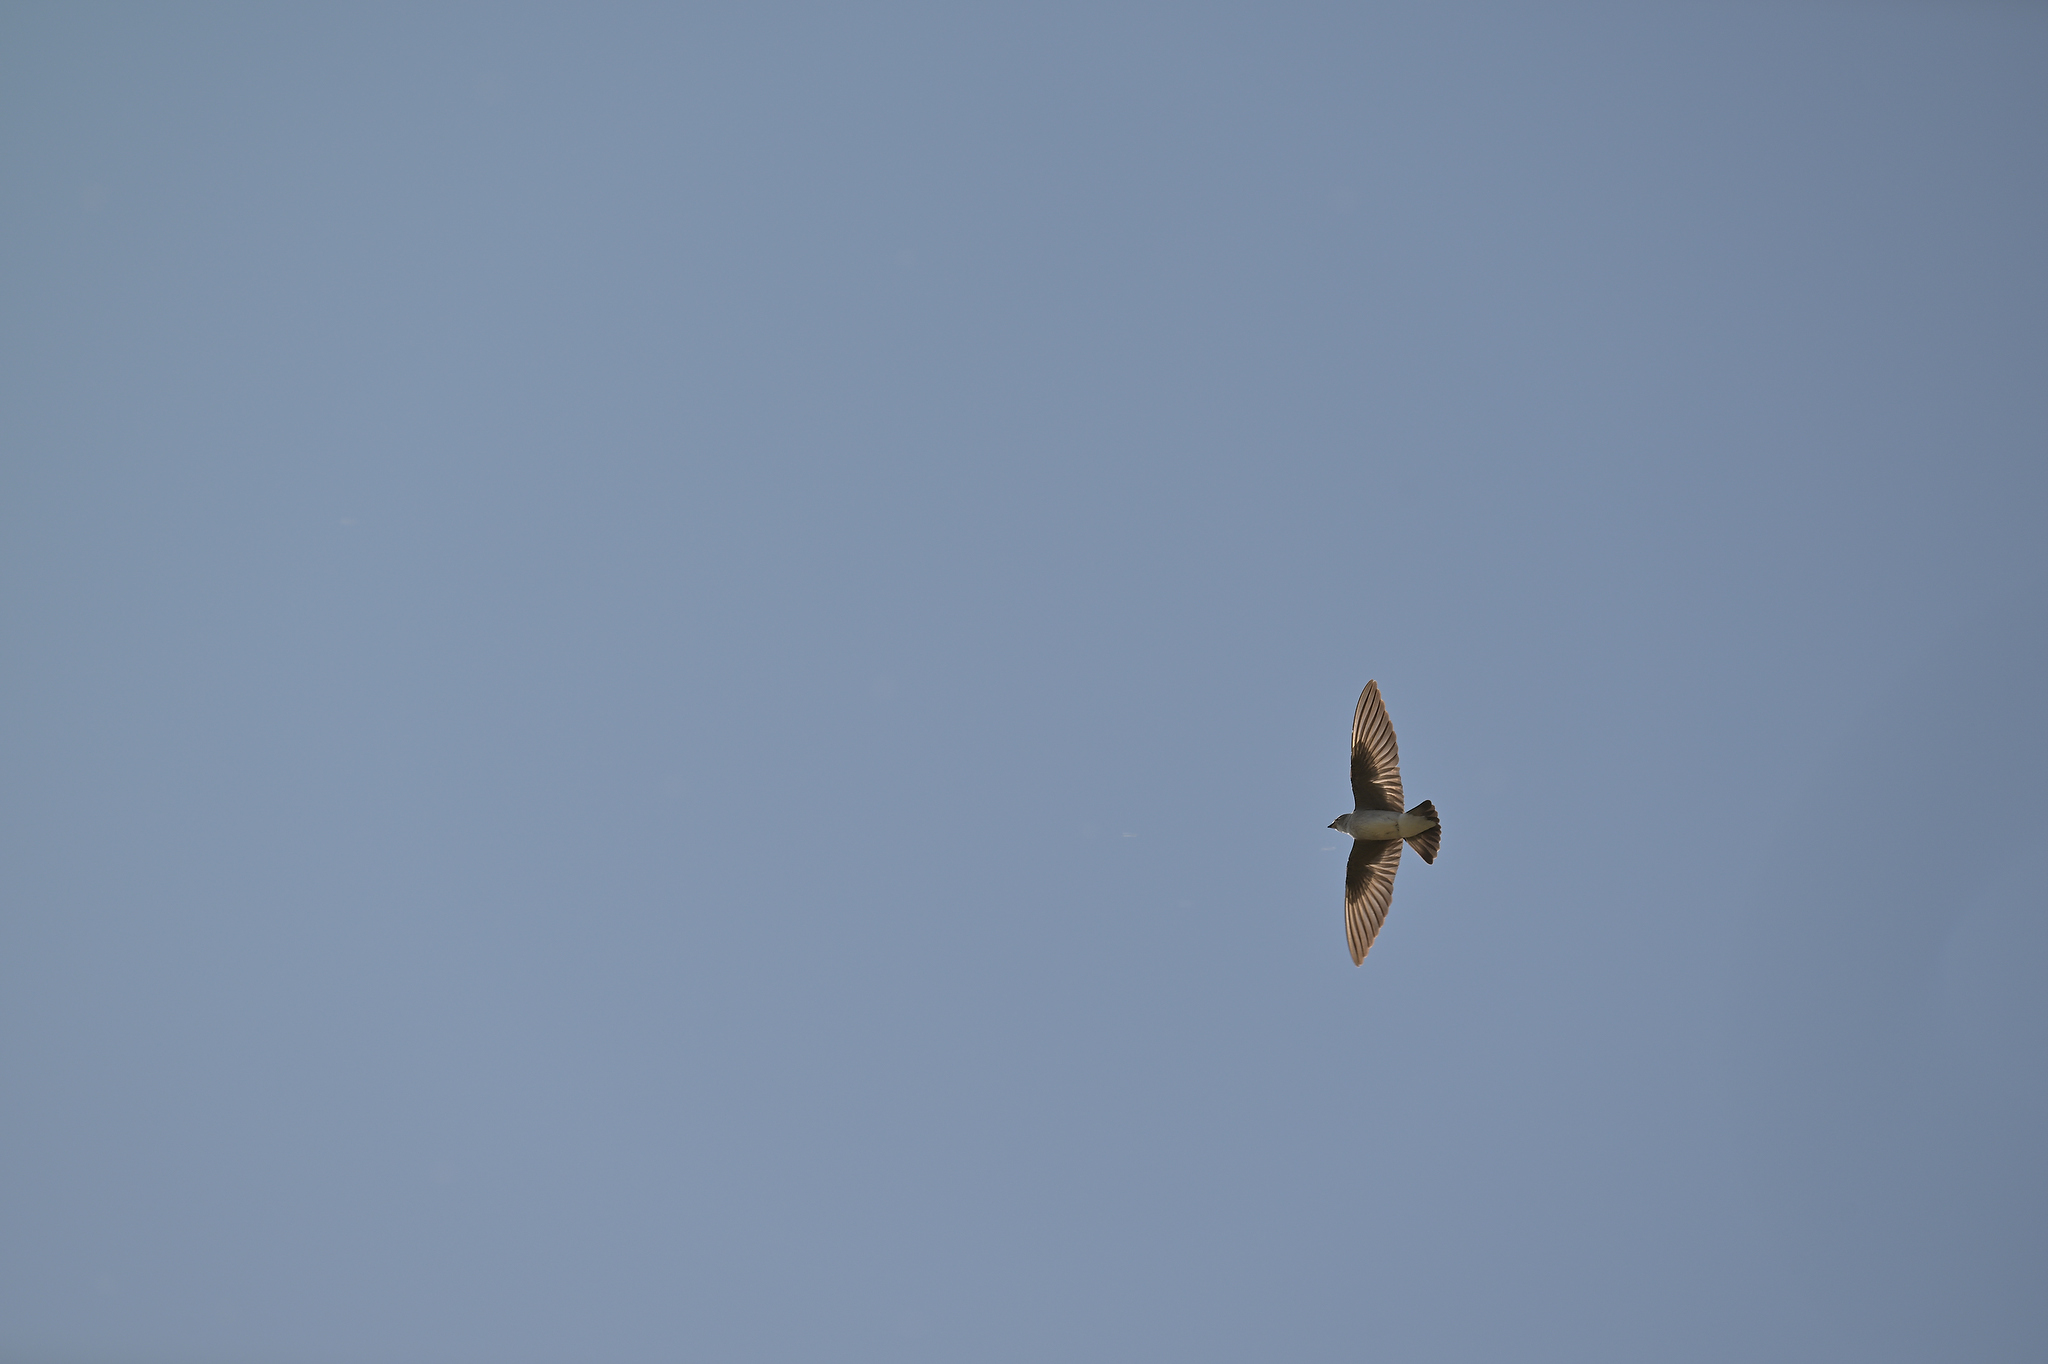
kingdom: Animalia
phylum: Chordata
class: Aves
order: Passeriformes
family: Hirundinidae
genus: Stelgidopteryx
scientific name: Stelgidopteryx serripennis
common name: Northern rough-winged swallow
